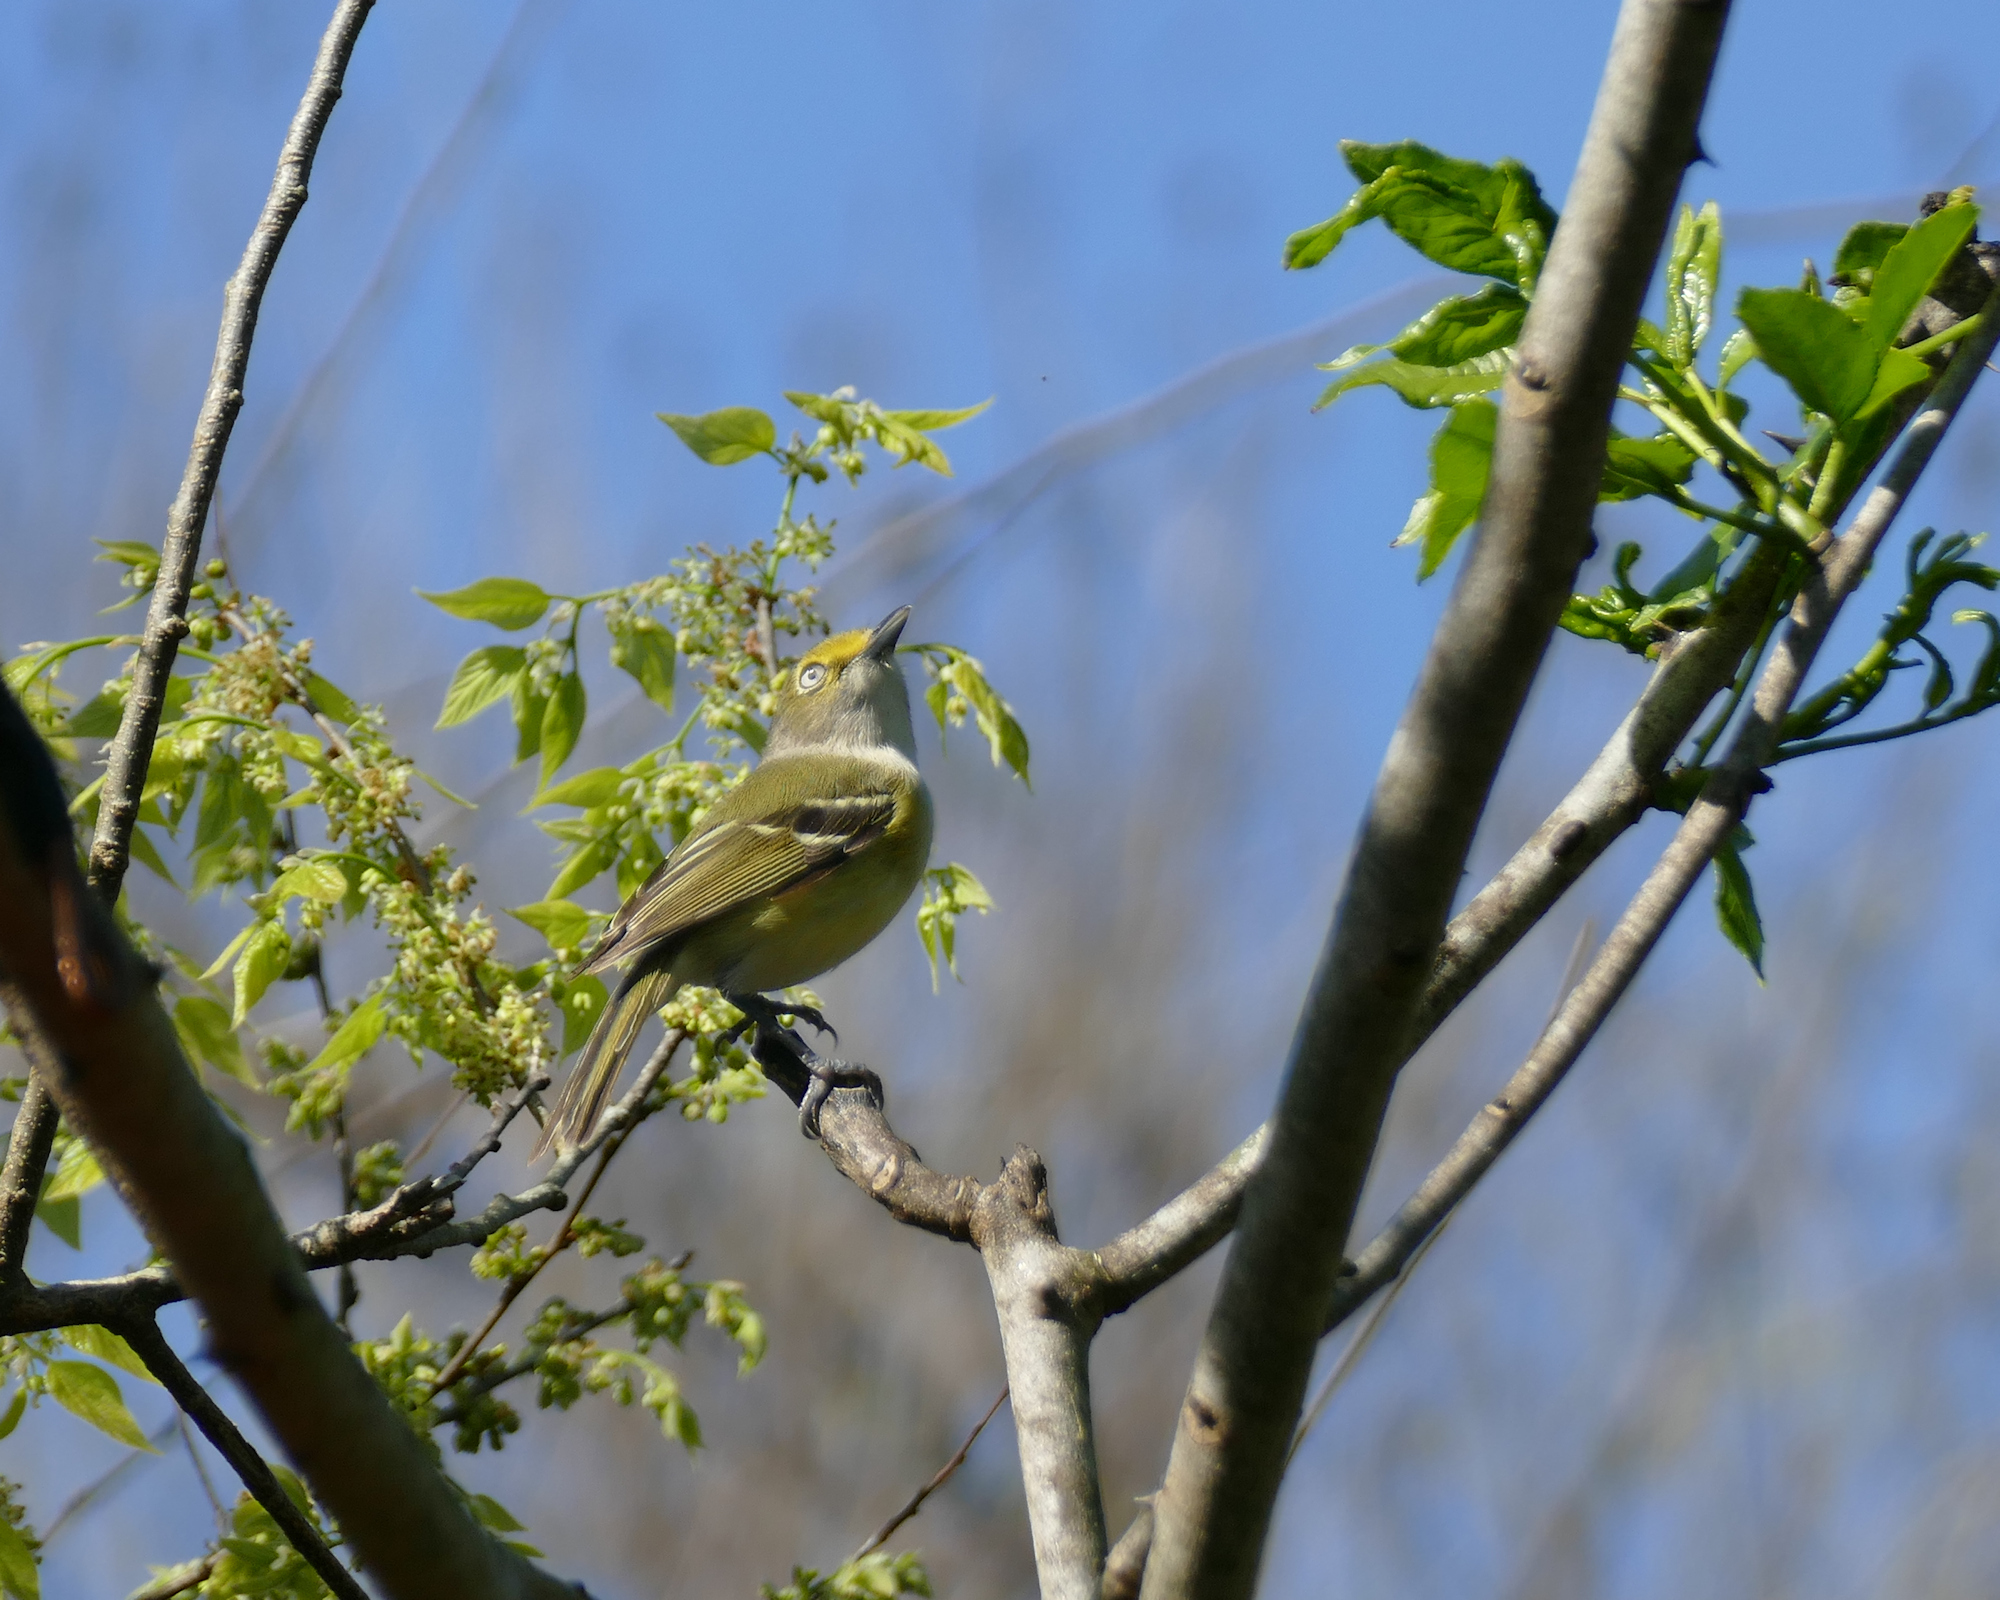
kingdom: Animalia
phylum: Chordata
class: Aves
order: Passeriformes
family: Vireonidae
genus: Vireo
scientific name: Vireo griseus
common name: White-eyed vireo
